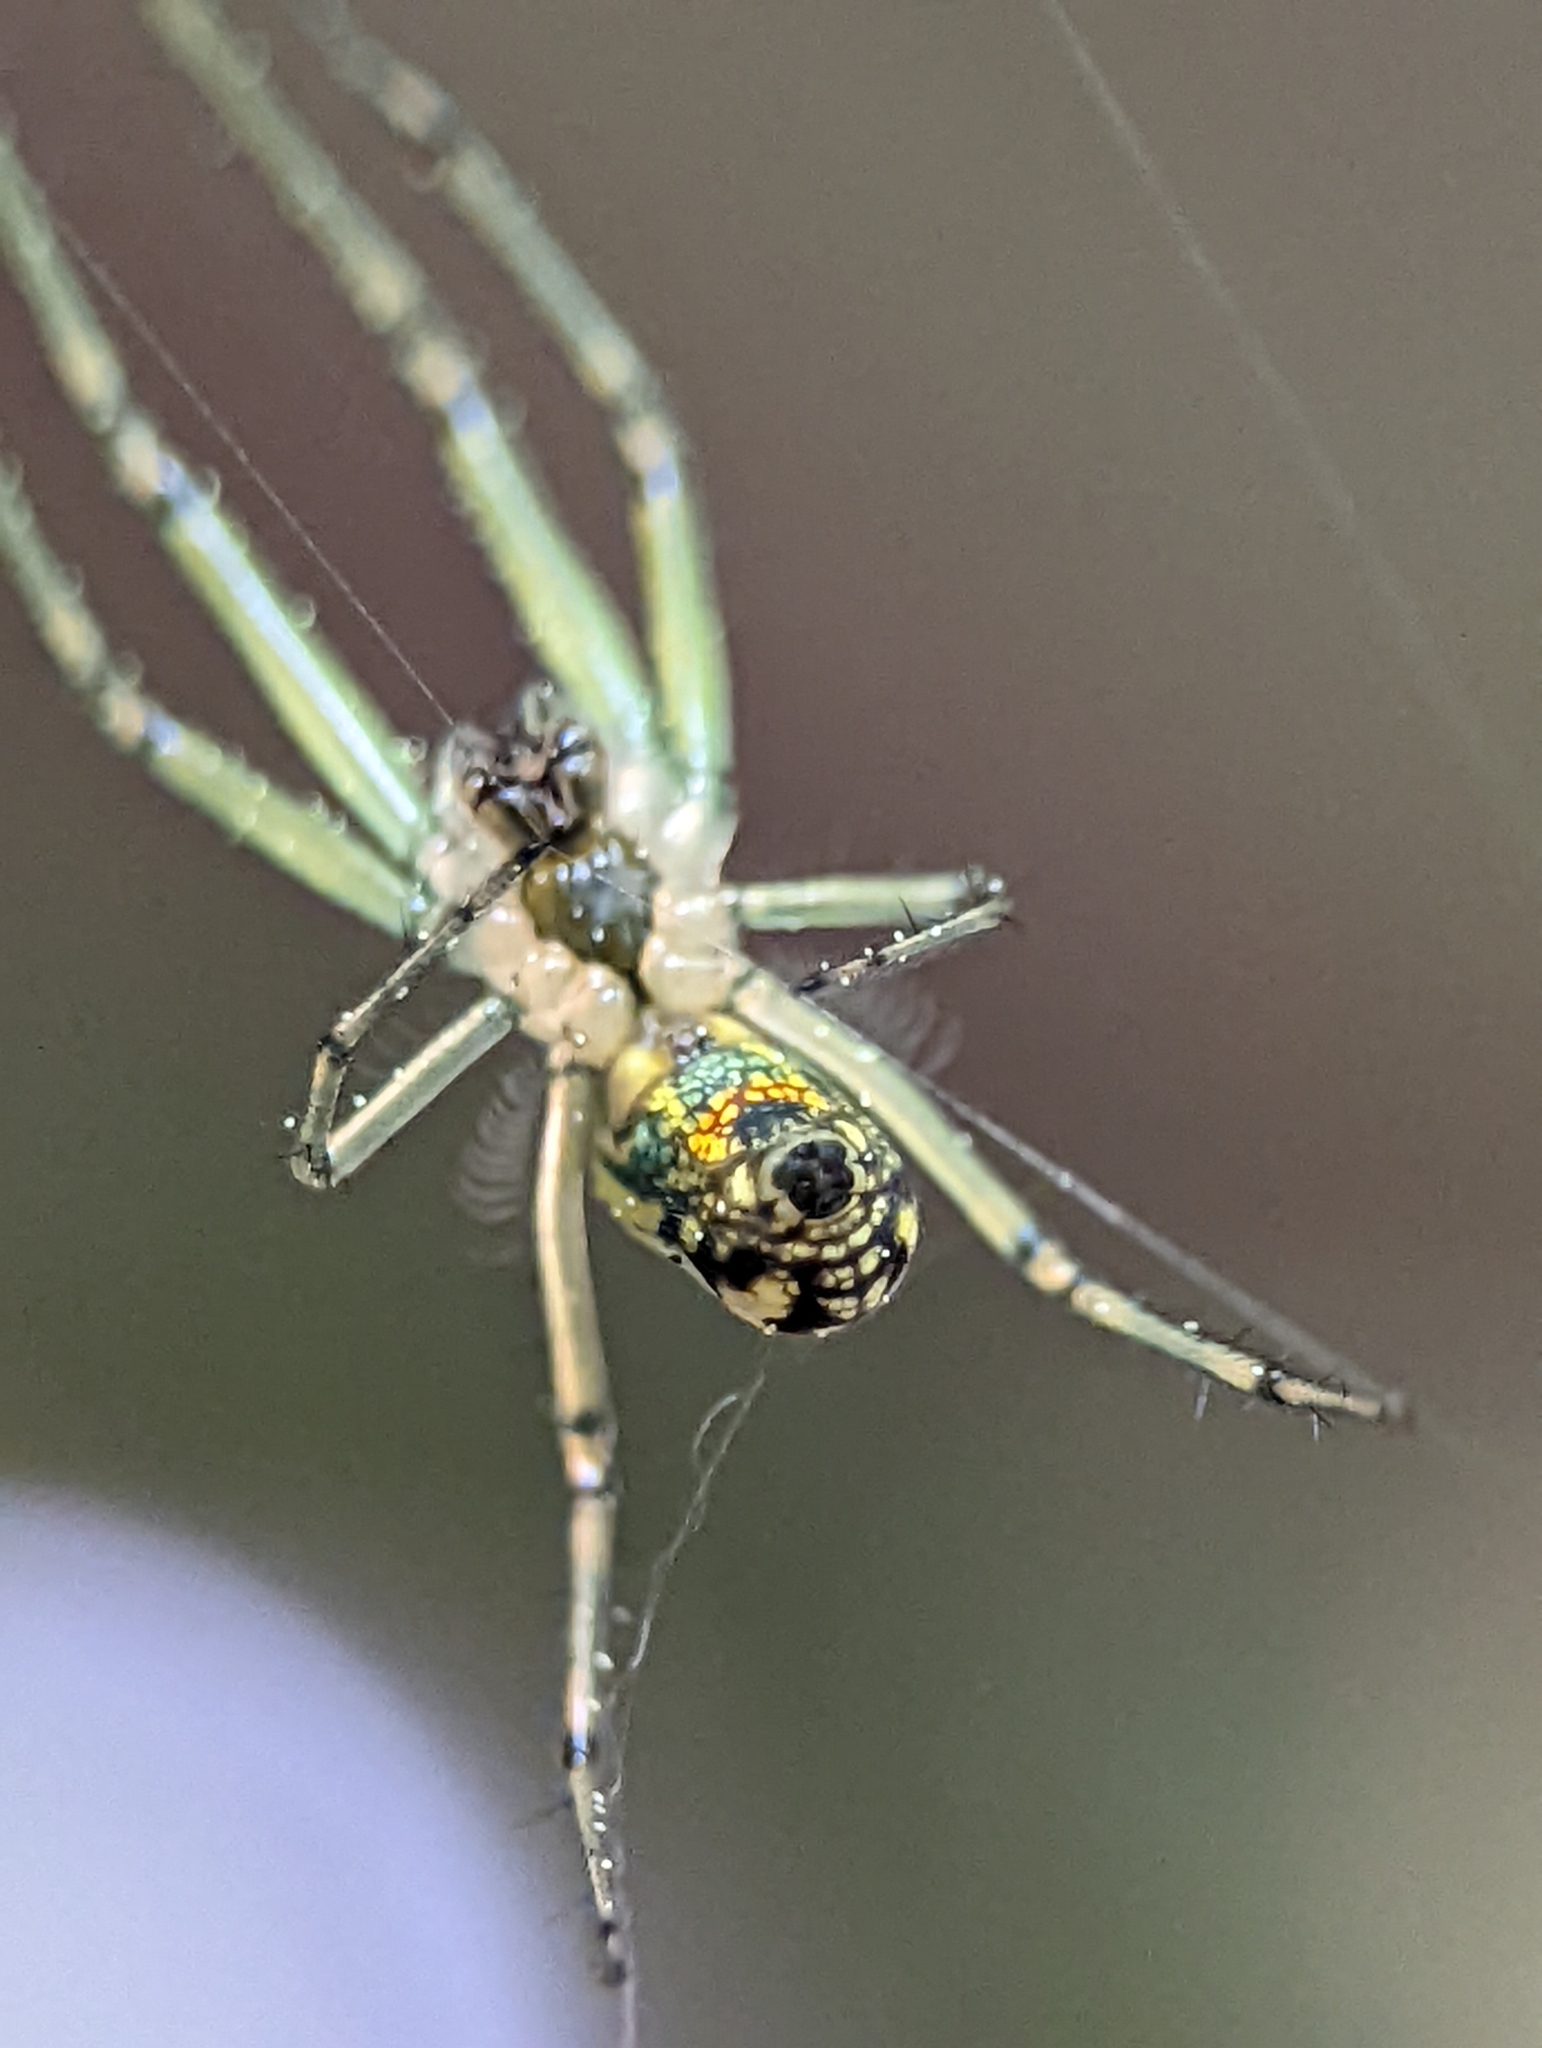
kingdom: Animalia
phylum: Arthropoda
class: Arachnida
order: Araneae
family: Tetragnathidae
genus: Leucauge
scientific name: Leucauge venusta
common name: Longjawed orb weavers
